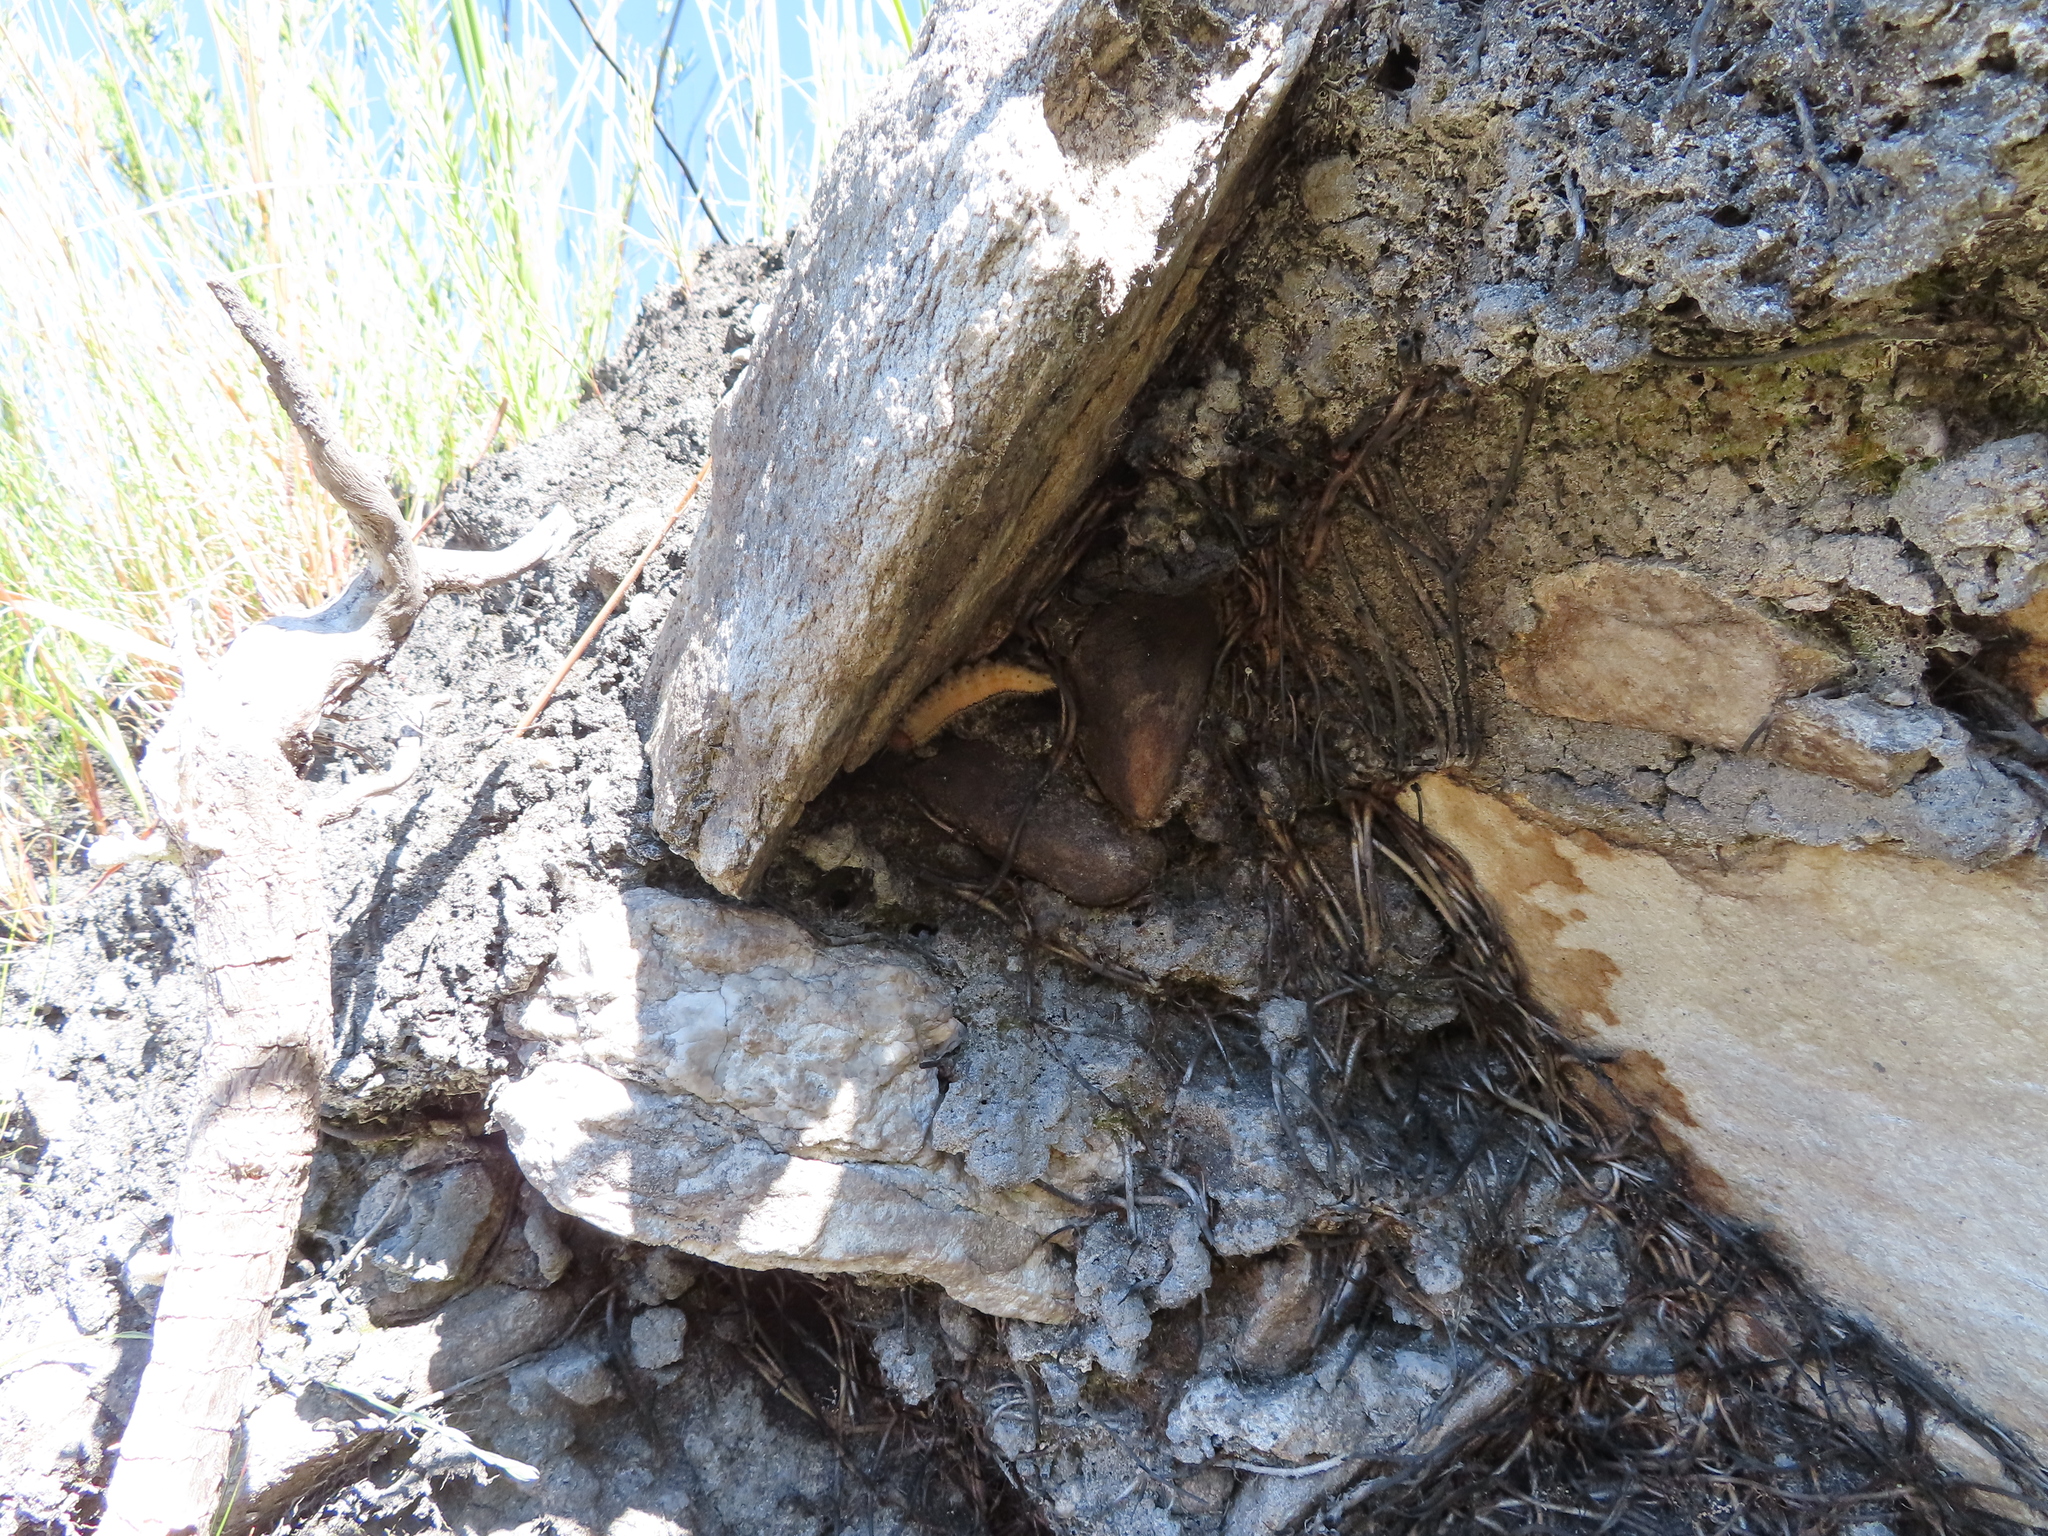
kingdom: Animalia
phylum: Arthropoda
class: Insecta
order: Lepidoptera
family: Nymphalidae
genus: Meneris
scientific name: Meneris Aeropetes tulbaghia
